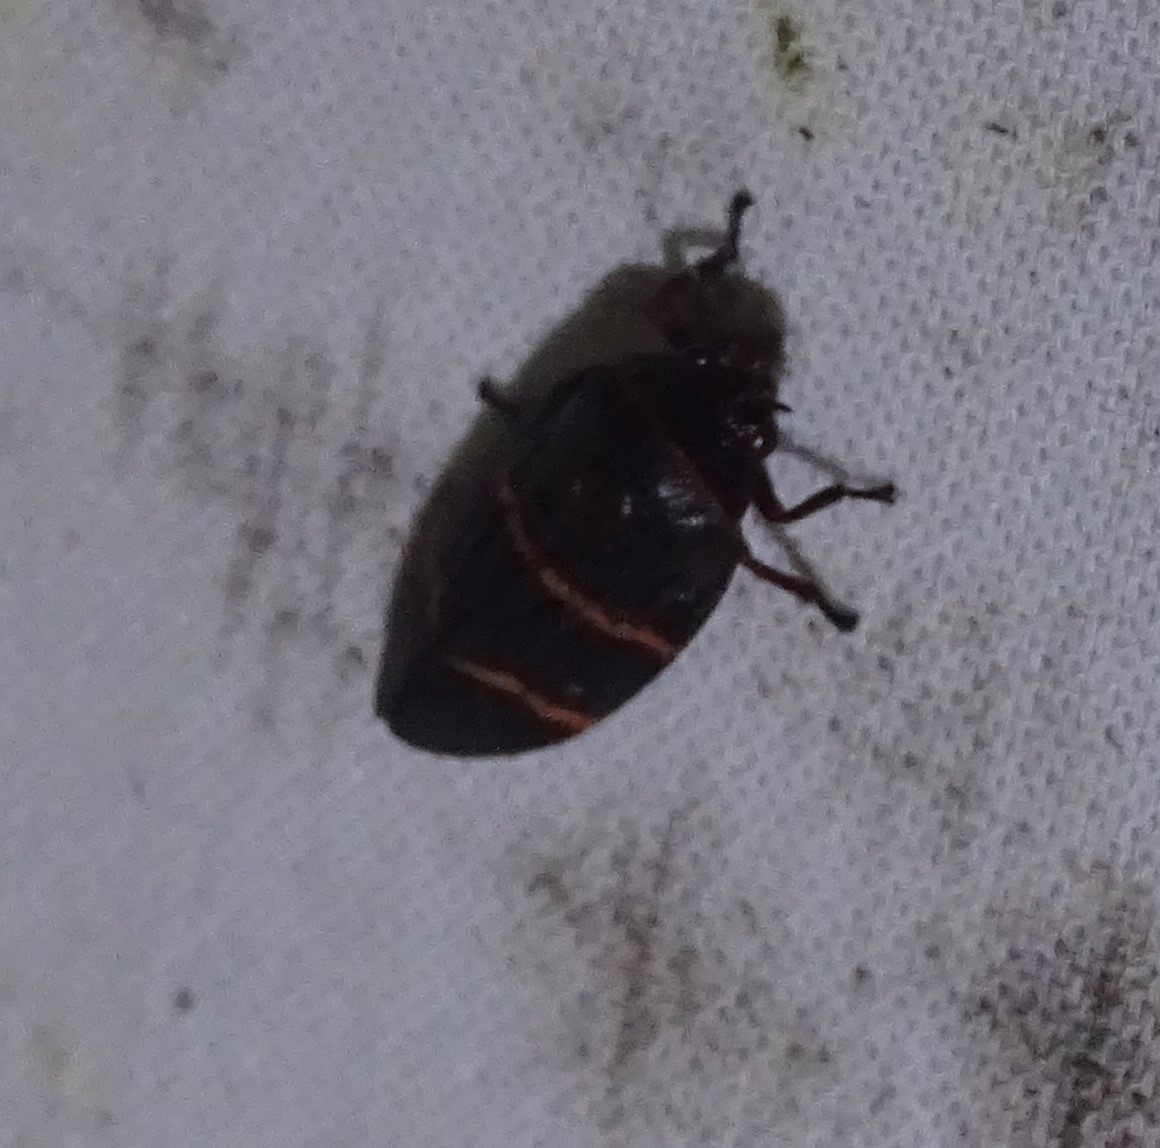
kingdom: Animalia
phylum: Arthropoda
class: Insecta
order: Hemiptera
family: Cercopidae
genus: Prosapia
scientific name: Prosapia bicincta
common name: Twolined spittlebug
